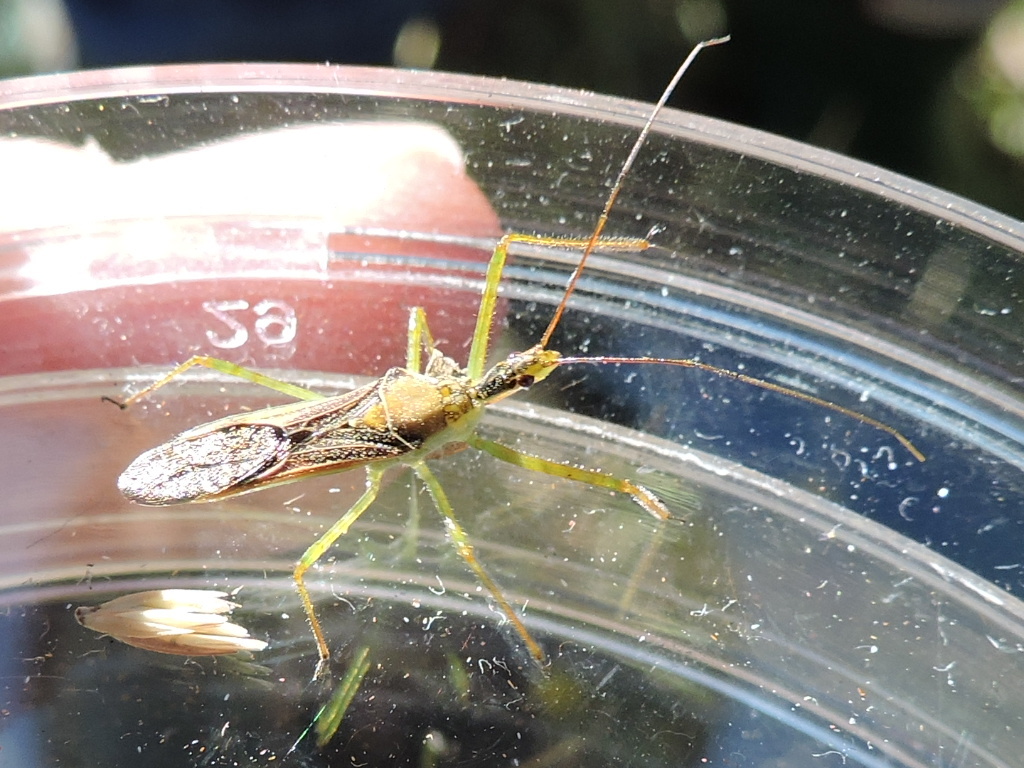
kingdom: Animalia
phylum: Arthropoda
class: Insecta
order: Hemiptera
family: Reduviidae
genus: Zelus
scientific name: Zelus renardii
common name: Assassin bug
